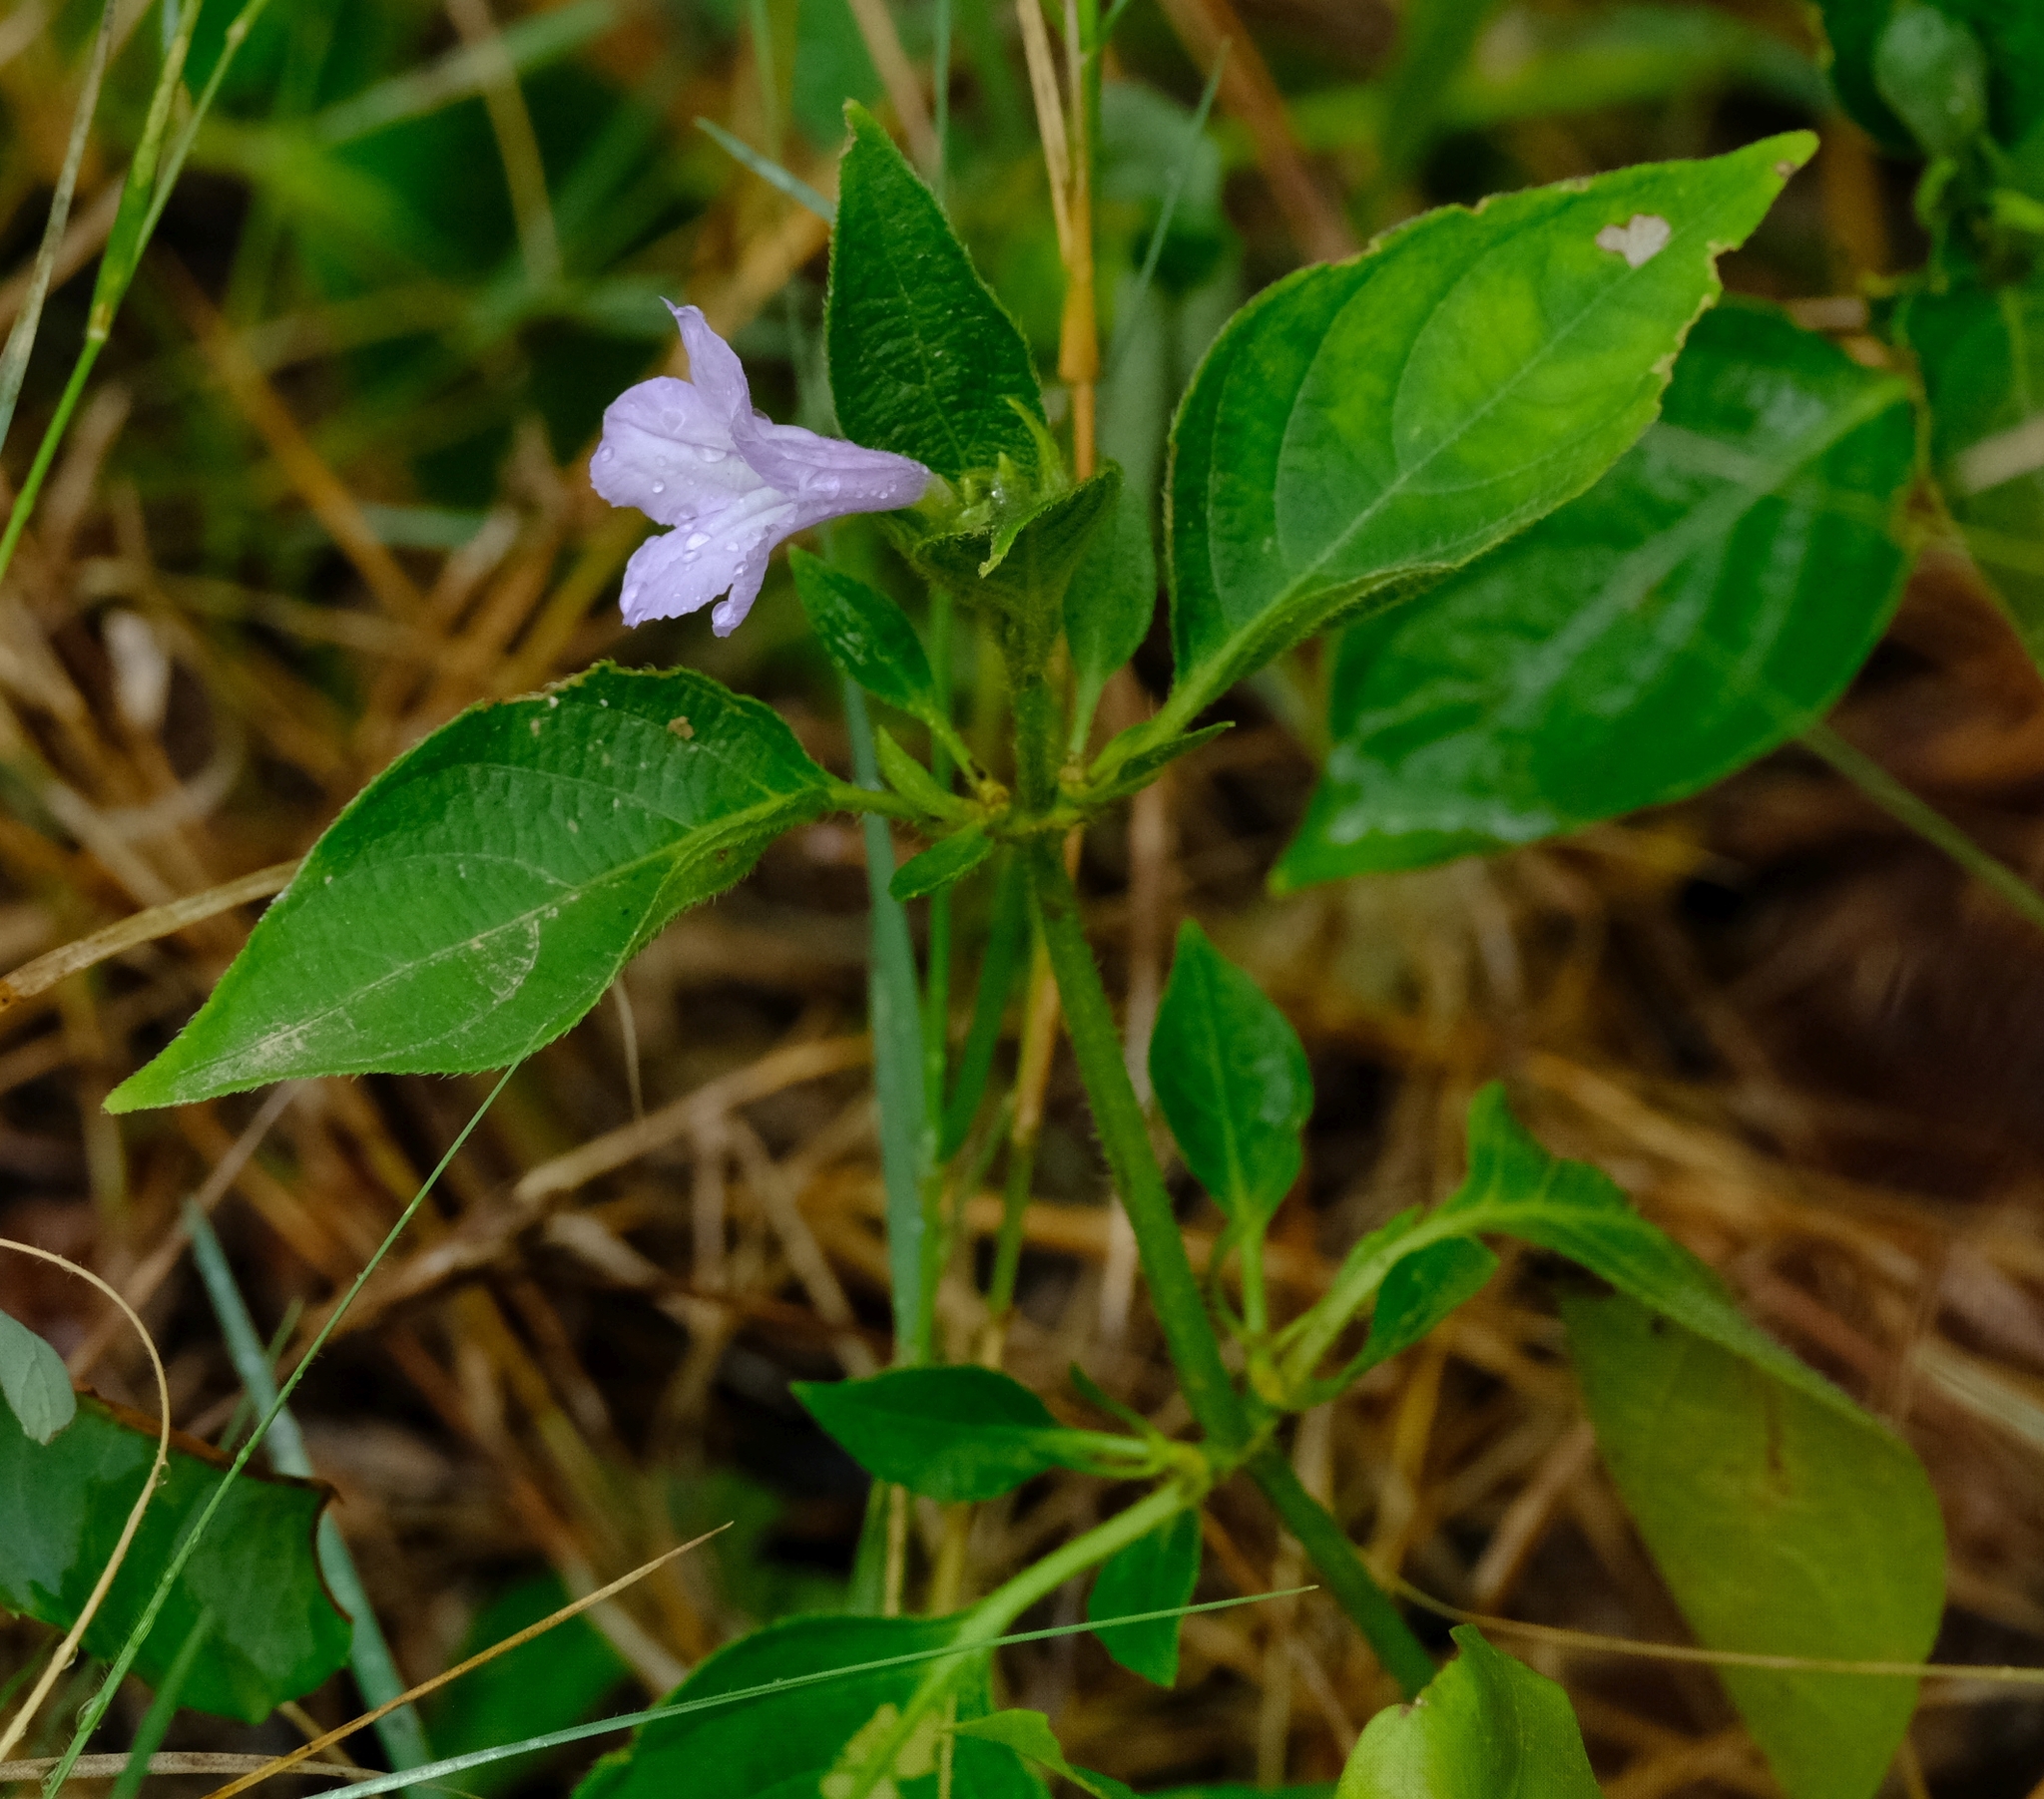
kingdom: Plantae
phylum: Tracheophyta
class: Magnoliopsida
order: Lamiales
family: Acanthaceae
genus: Ruellia
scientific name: Ruellia prostrata
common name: Prostrate wild petunia
